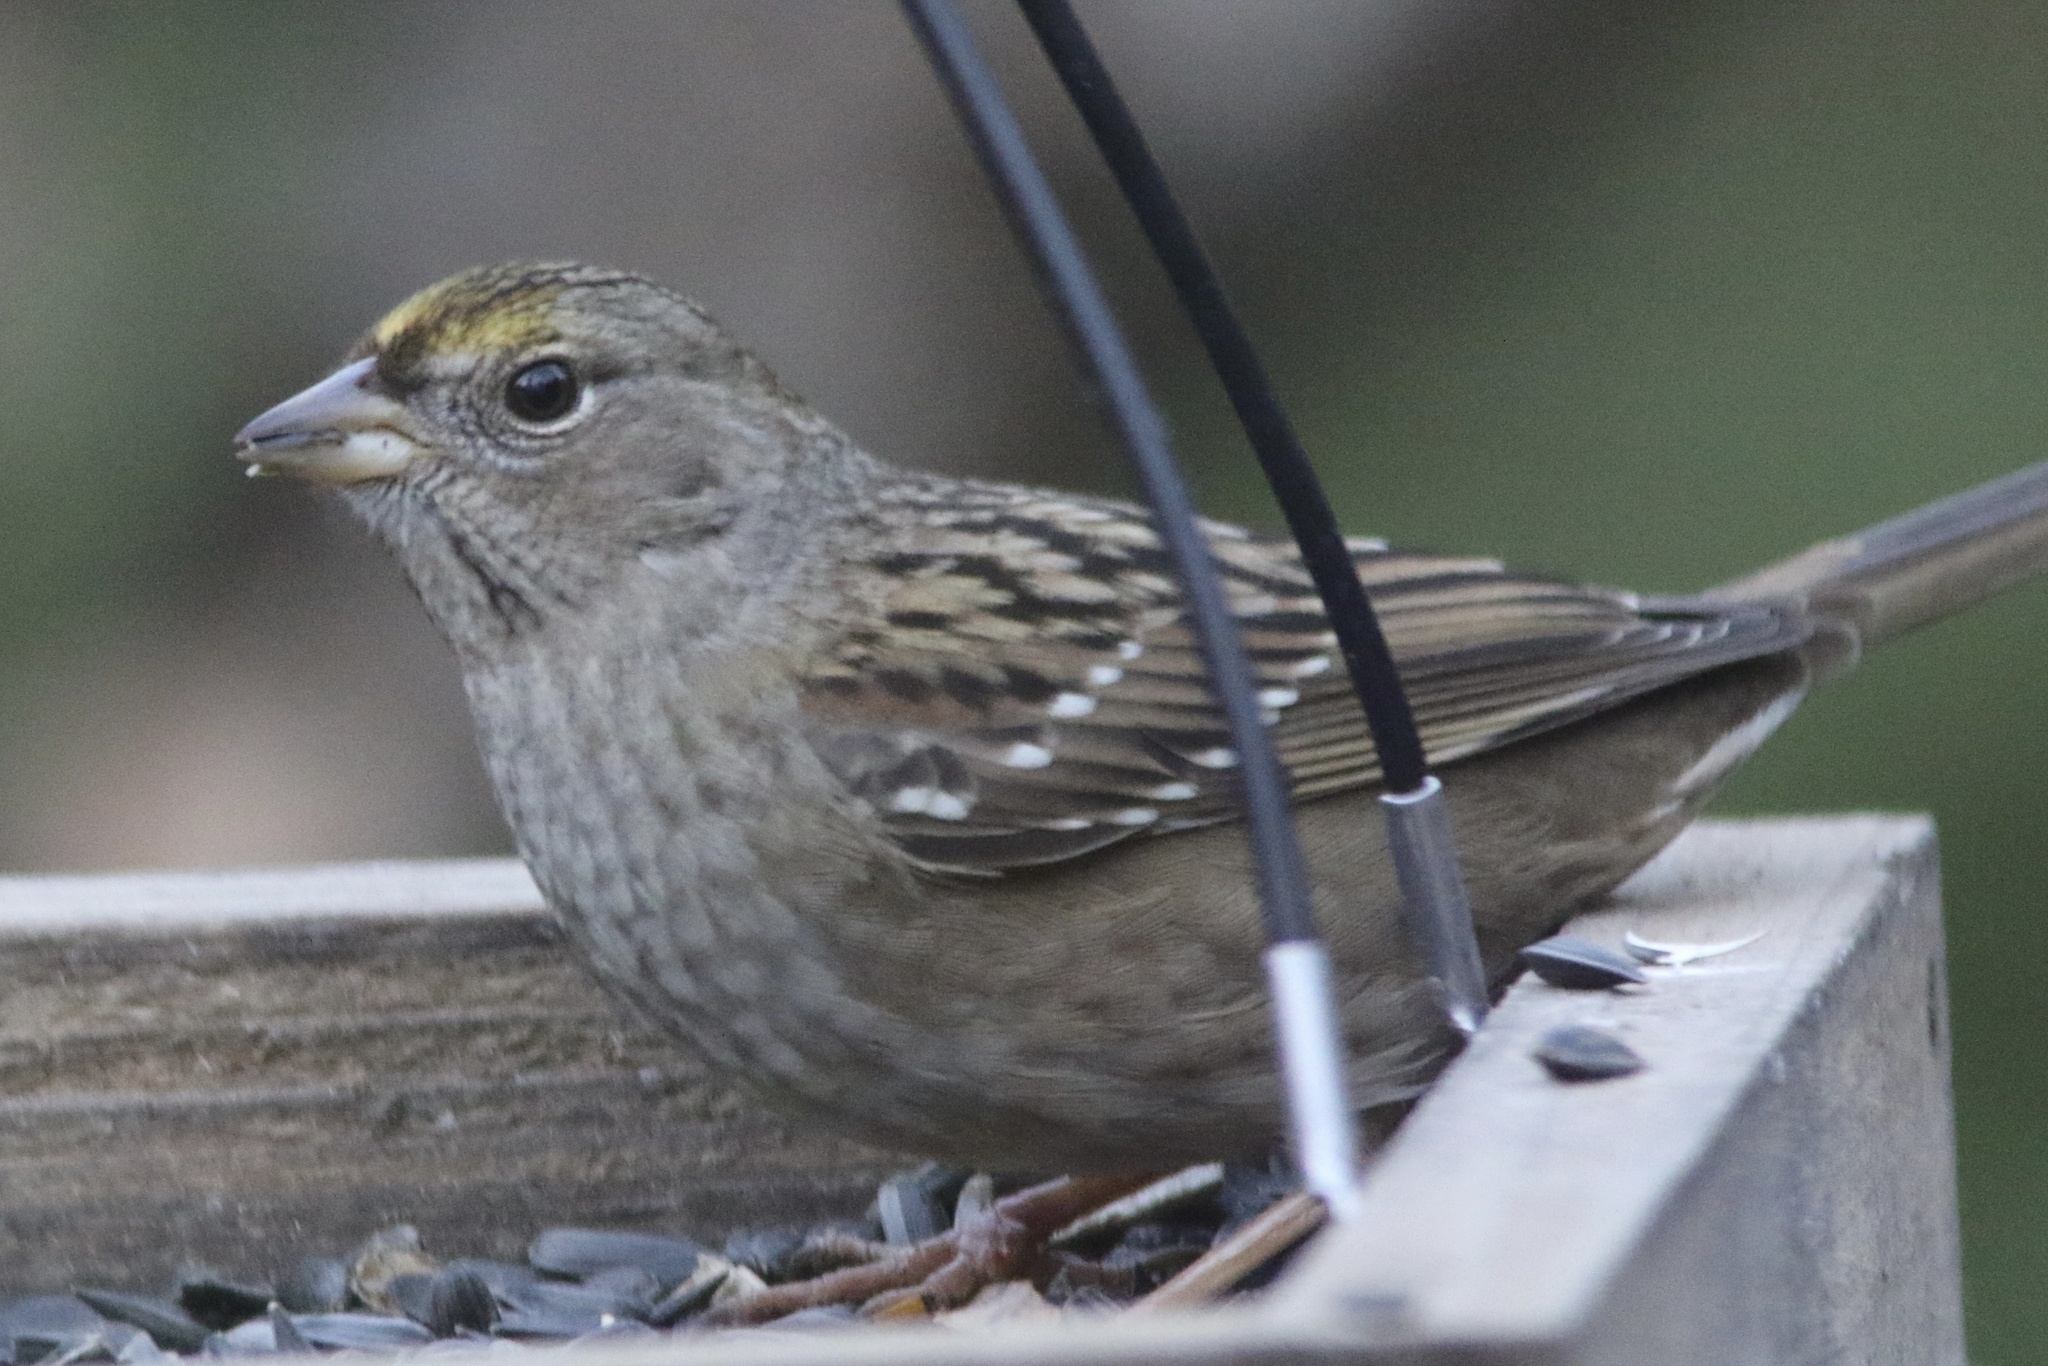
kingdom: Animalia
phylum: Chordata
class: Aves
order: Passeriformes
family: Passerellidae
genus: Zonotrichia
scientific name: Zonotrichia atricapilla
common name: Golden-crowned sparrow
